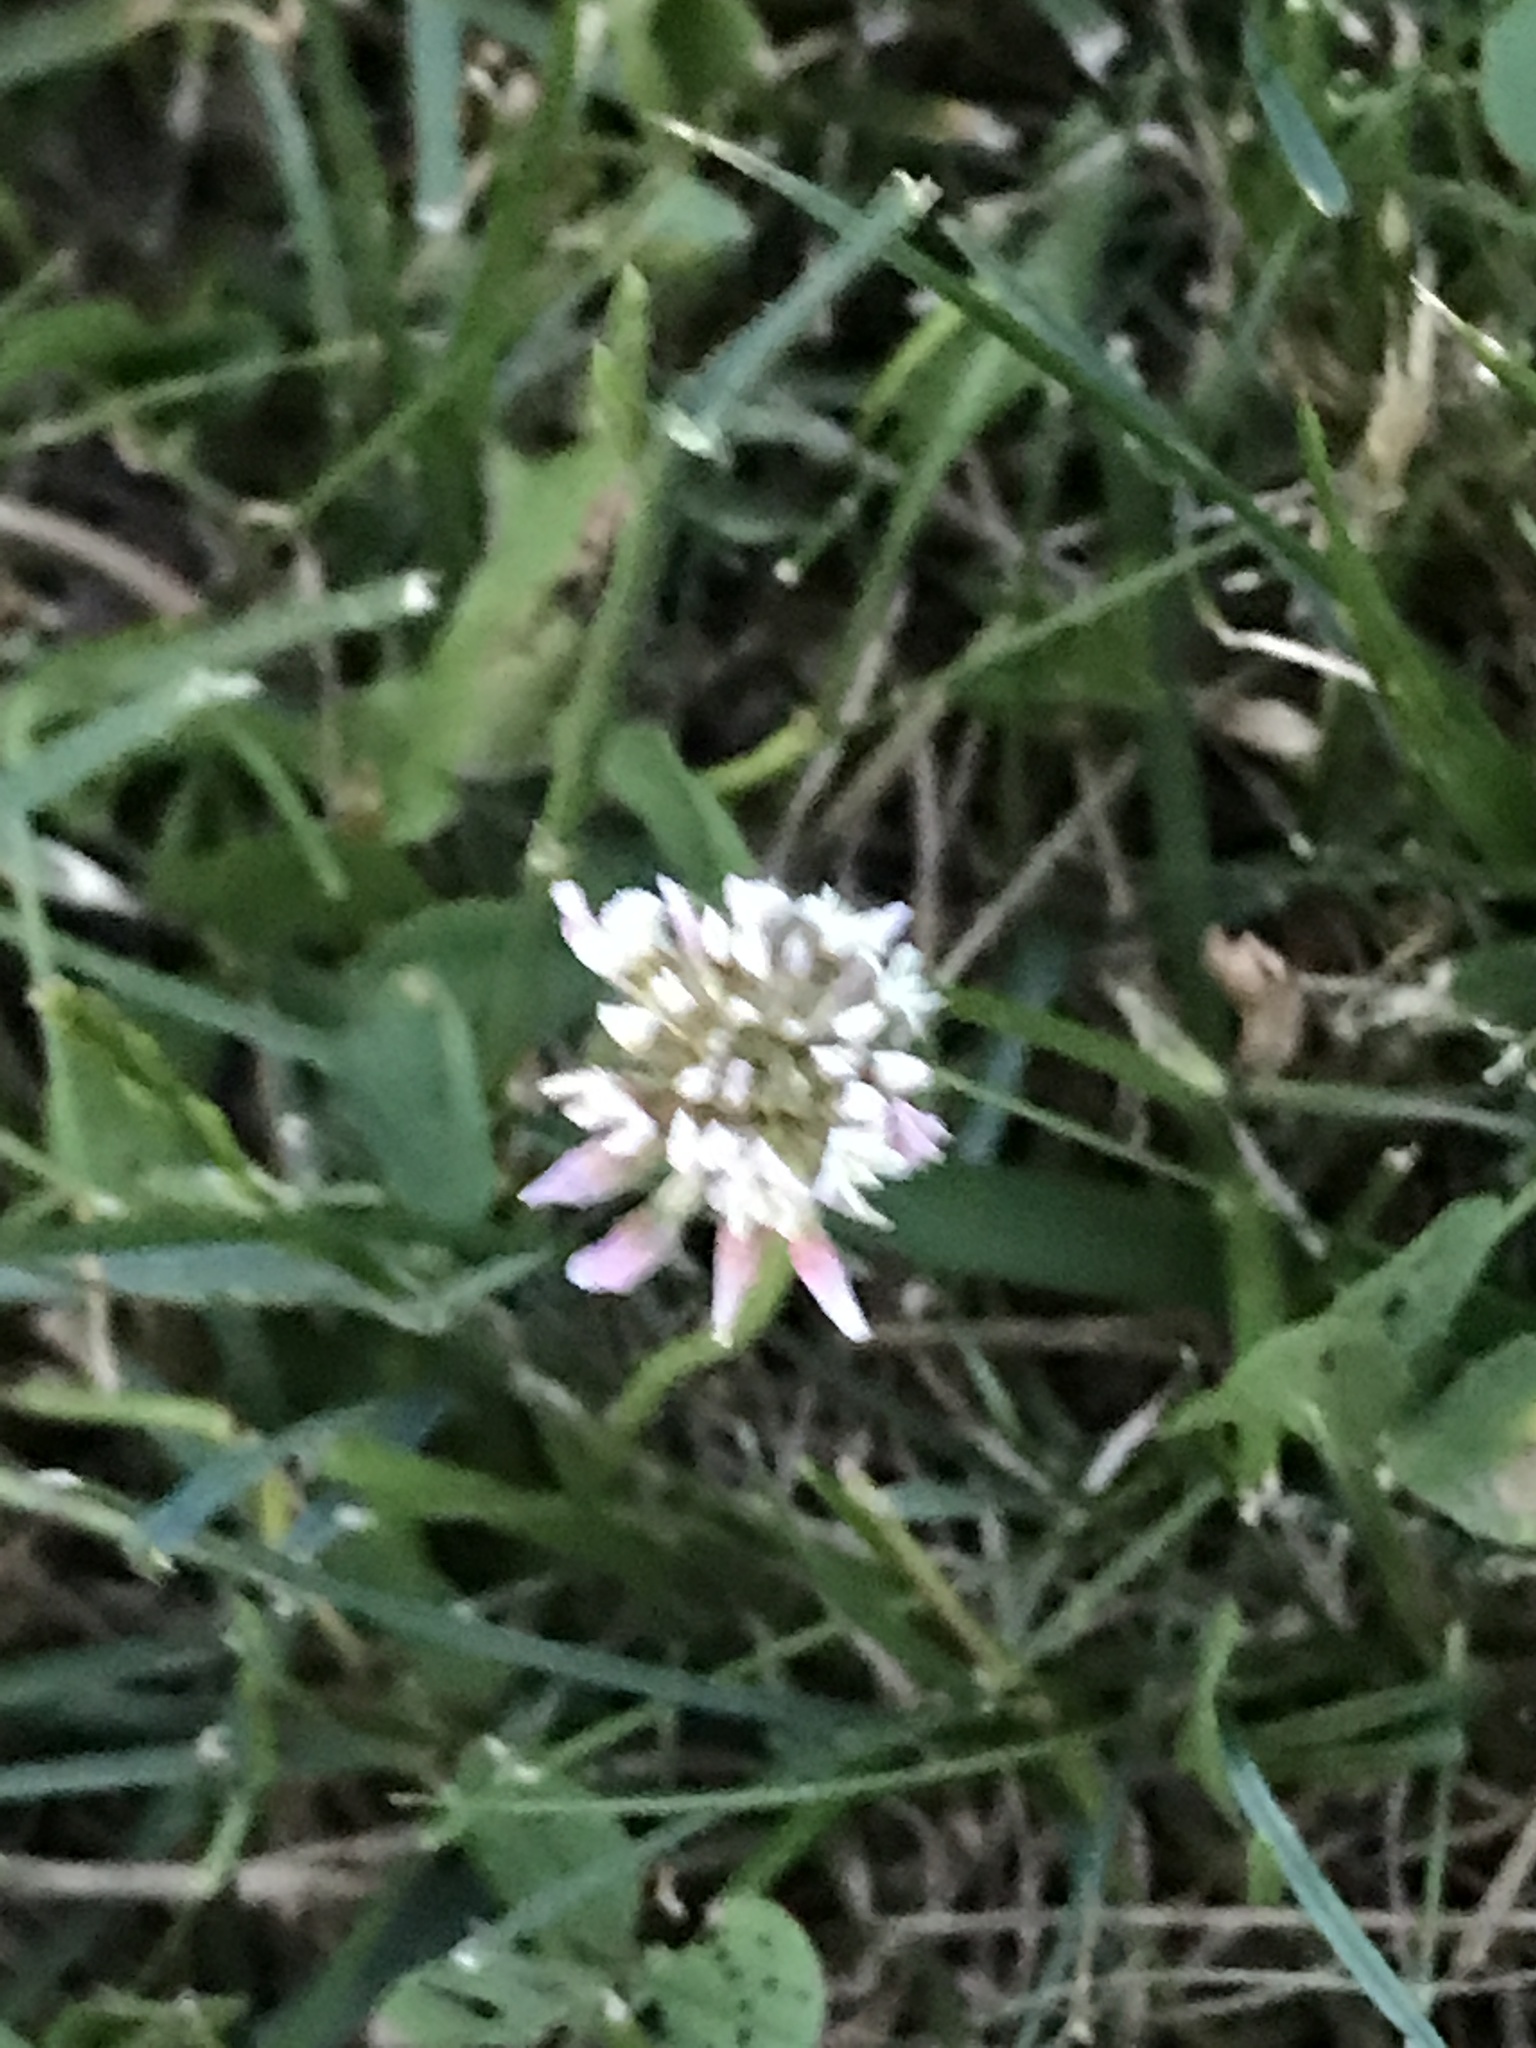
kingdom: Plantae
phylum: Tracheophyta
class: Magnoliopsida
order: Fabales
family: Fabaceae
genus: Trifolium
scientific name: Trifolium repens
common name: White clover
